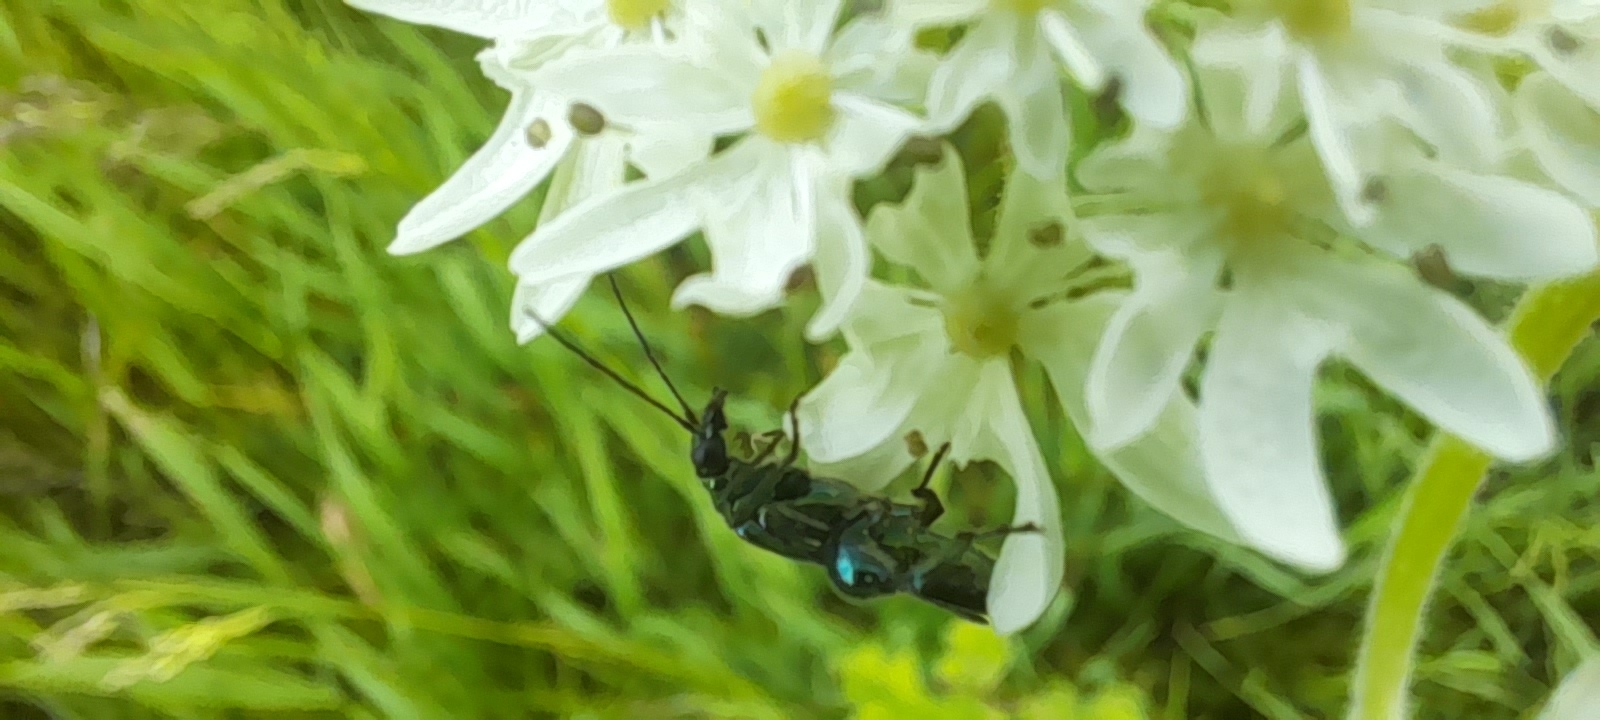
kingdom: Animalia
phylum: Arthropoda
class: Insecta
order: Coleoptera
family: Oedemeridae
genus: Oedemera
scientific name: Oedemera nobilis
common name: Swollen-thighed beetle
